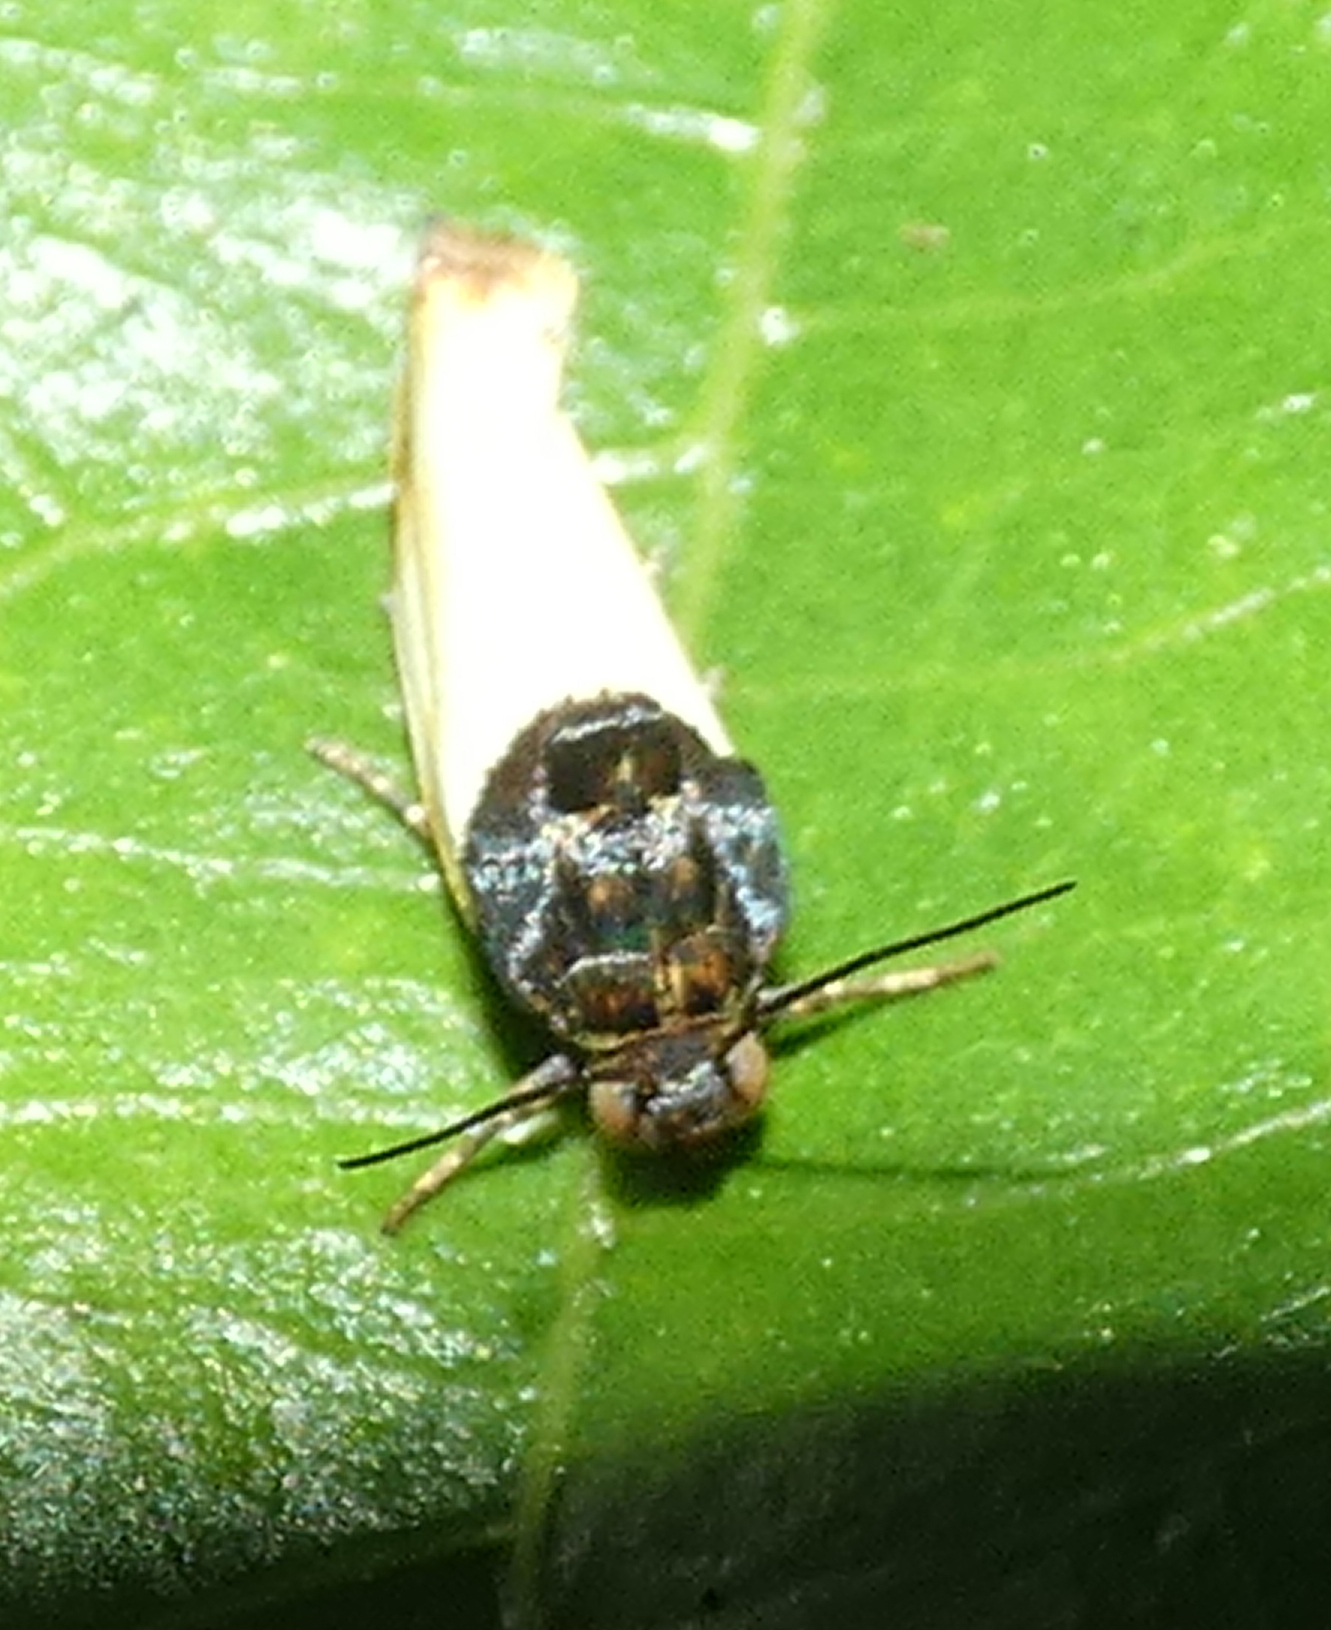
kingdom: Animalia
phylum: Arthropoda
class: Insecta
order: Lepidoptera
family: Noctuidae
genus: Spragueia
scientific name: Spragueia apicalis
